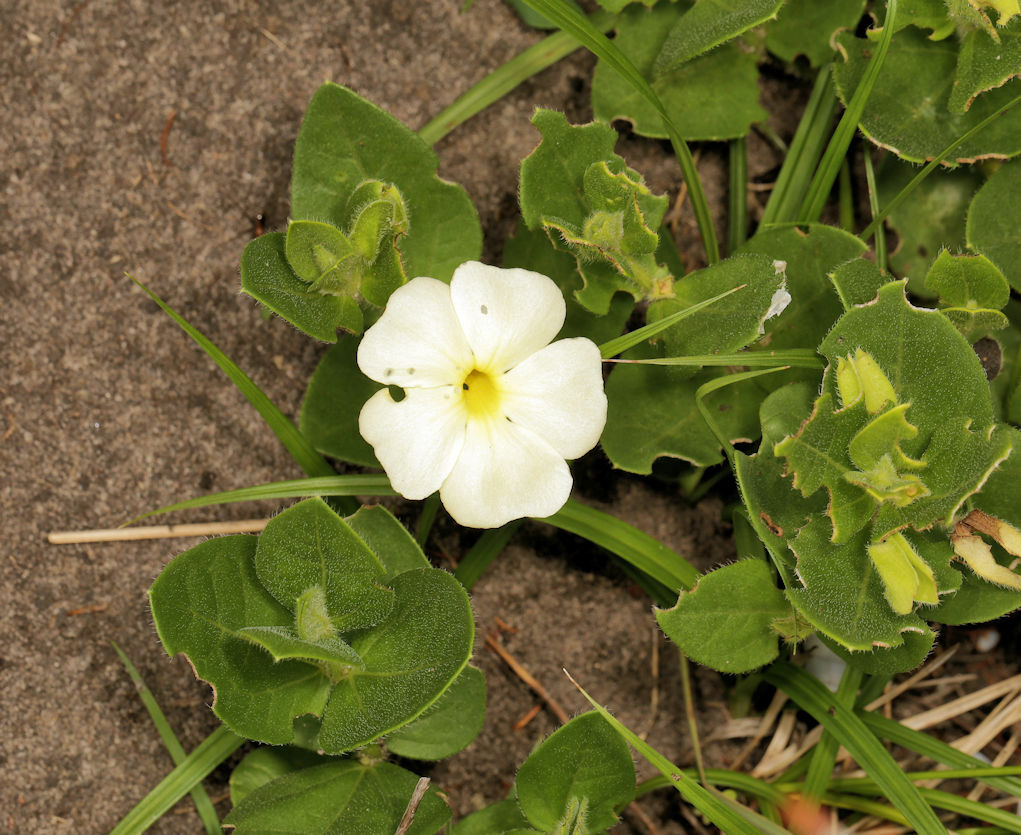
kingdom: Plantae
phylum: Tracheophyta
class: Magnoliopsida
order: Lamiales
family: Acanthaceae
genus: Thunbergia
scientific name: Thunbergia atriplicifolia
